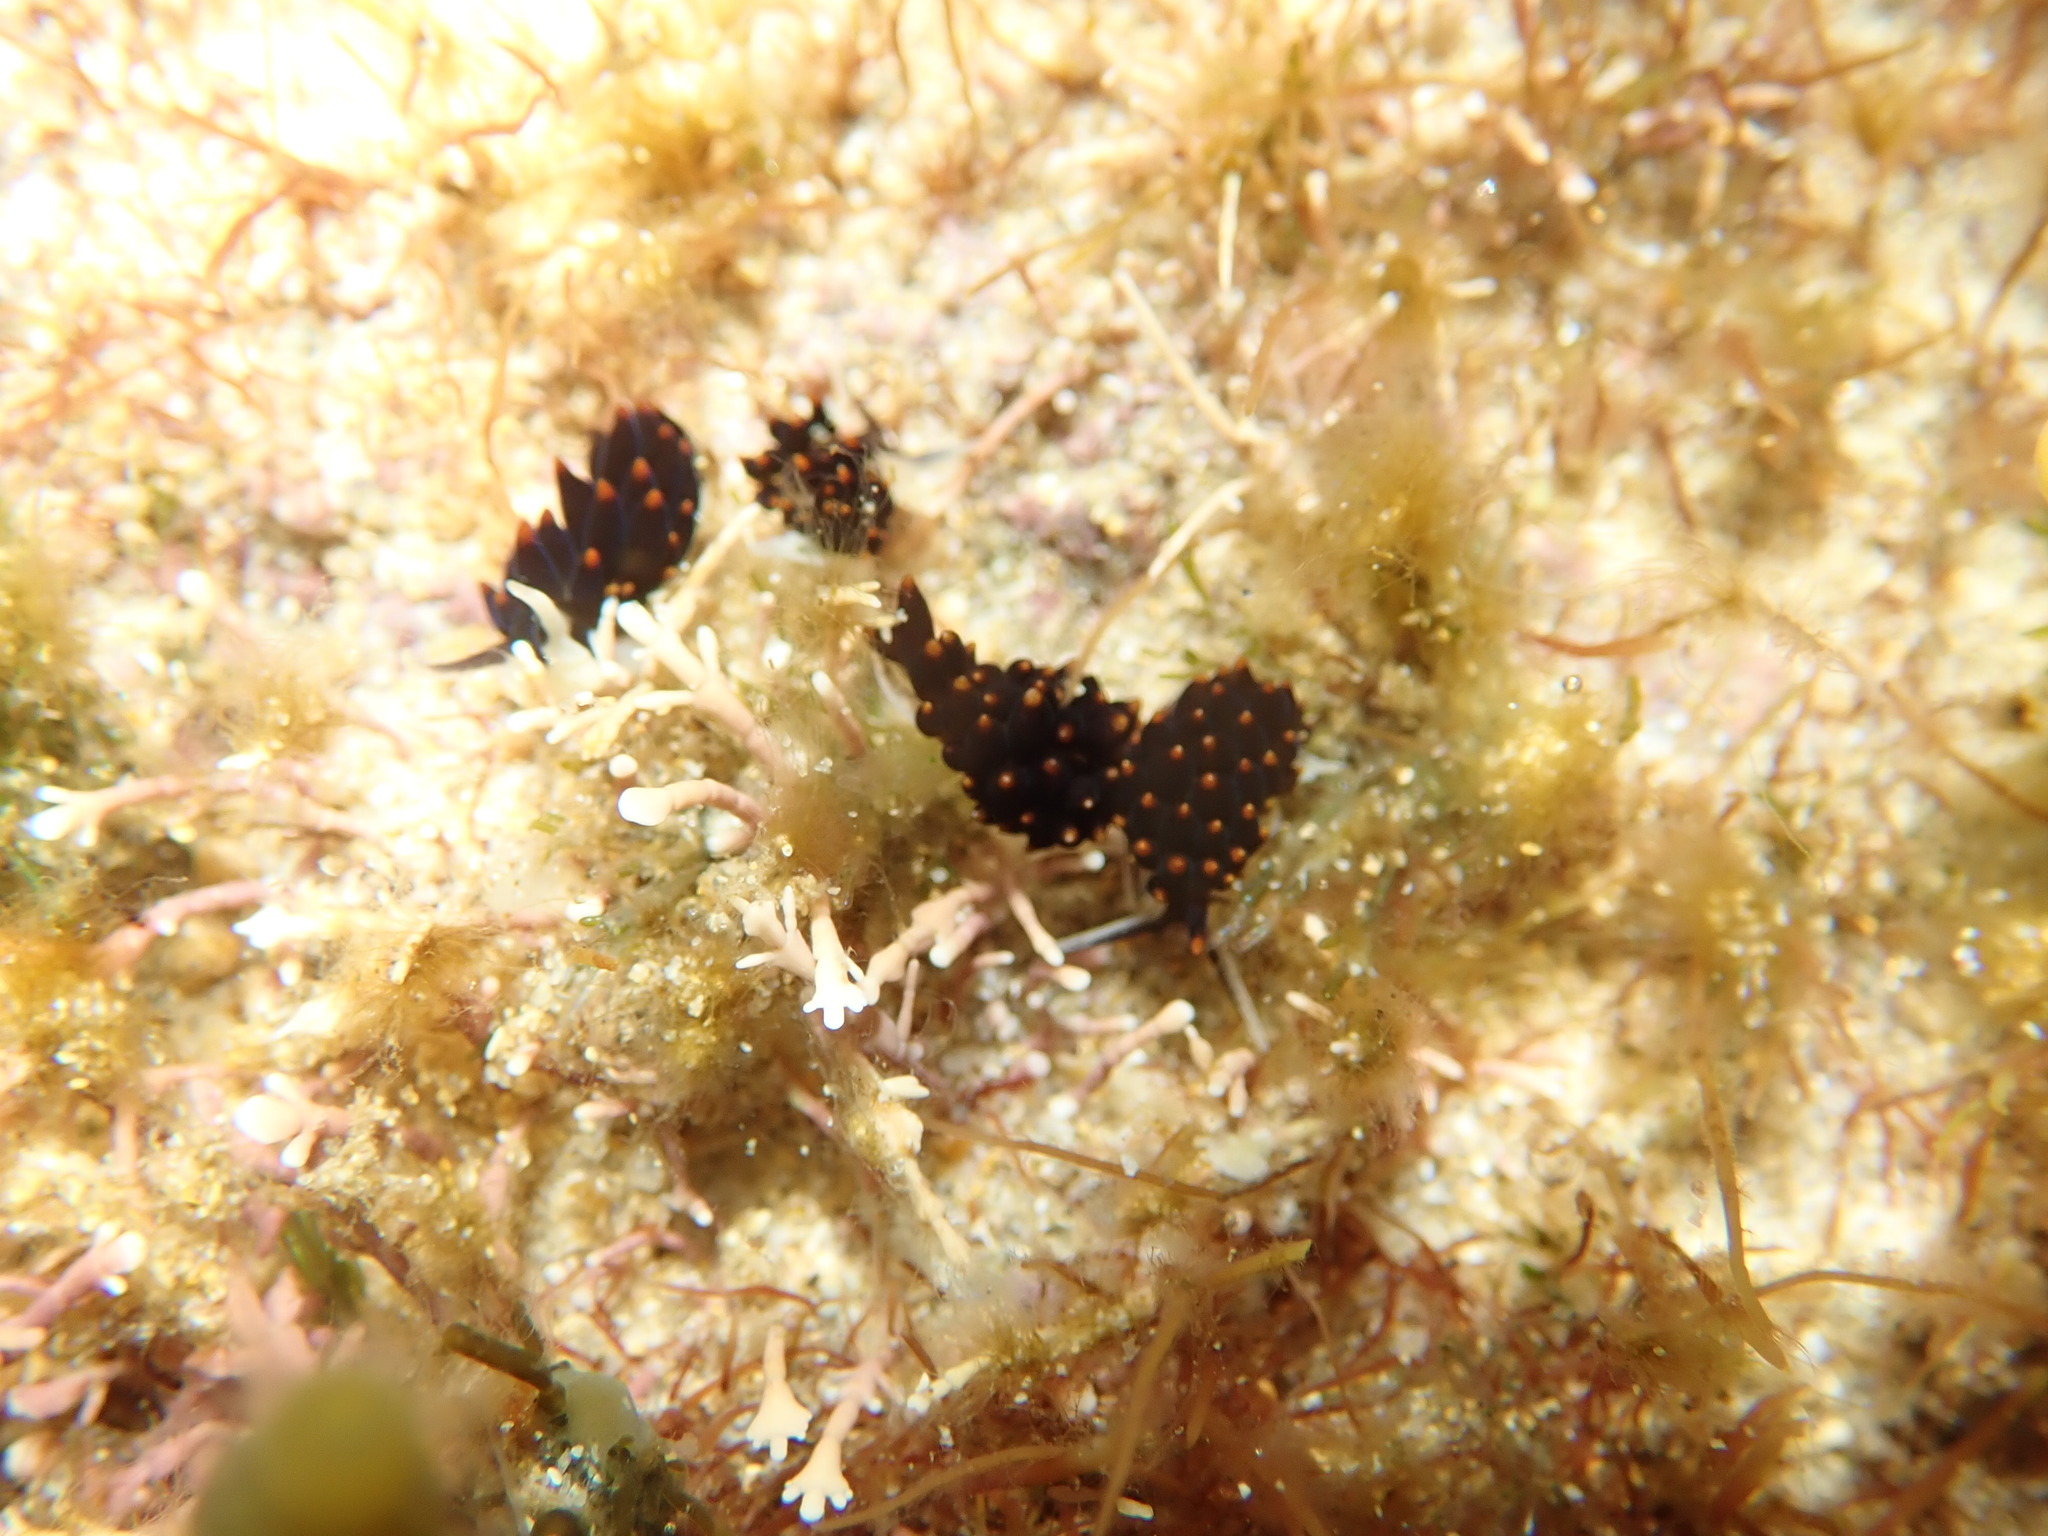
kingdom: Animalia
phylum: Mollusca
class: Gastropoda
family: Limapontiidae
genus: Ercolania
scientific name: Ercolania boodleae
